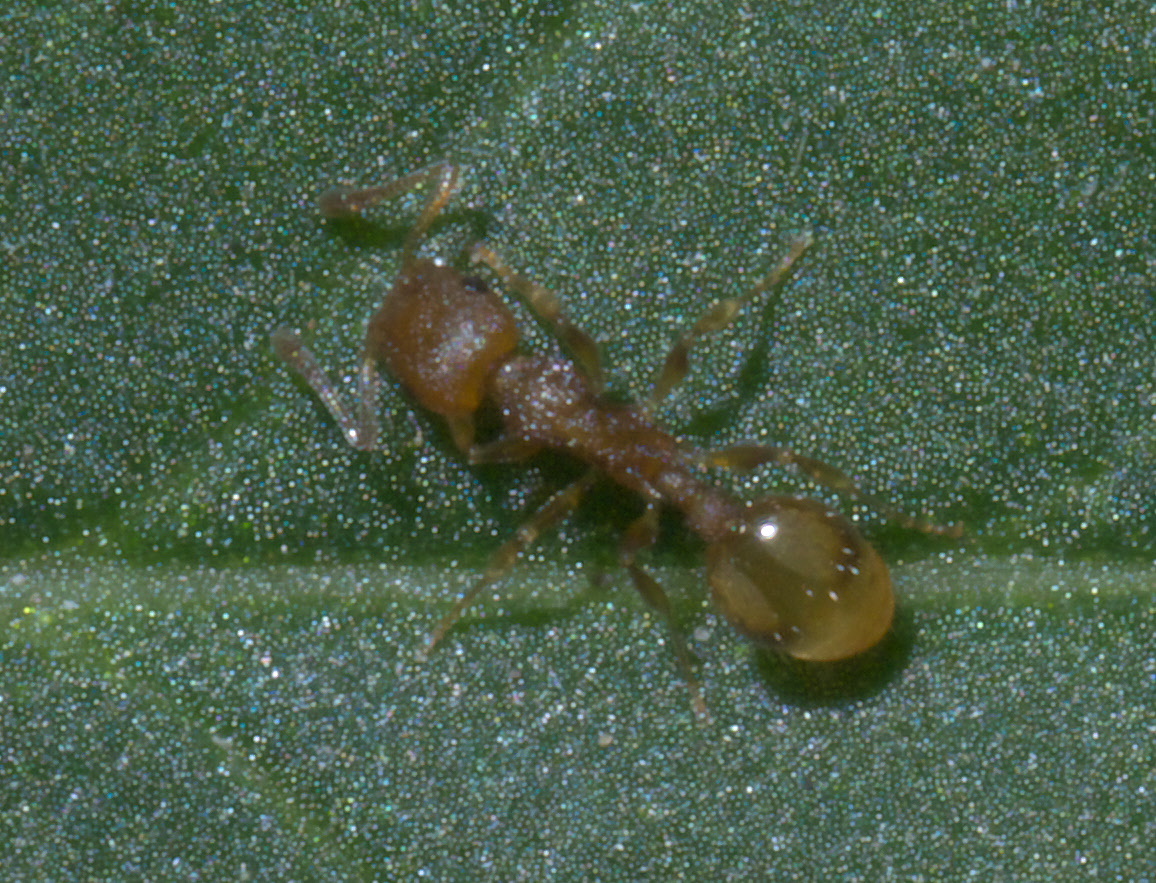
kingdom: Animalia
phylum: Arthropoda
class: Insecta
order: Hymenoptera
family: Formicidae
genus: Temnothorax
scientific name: Temnothorax curvispinosus
